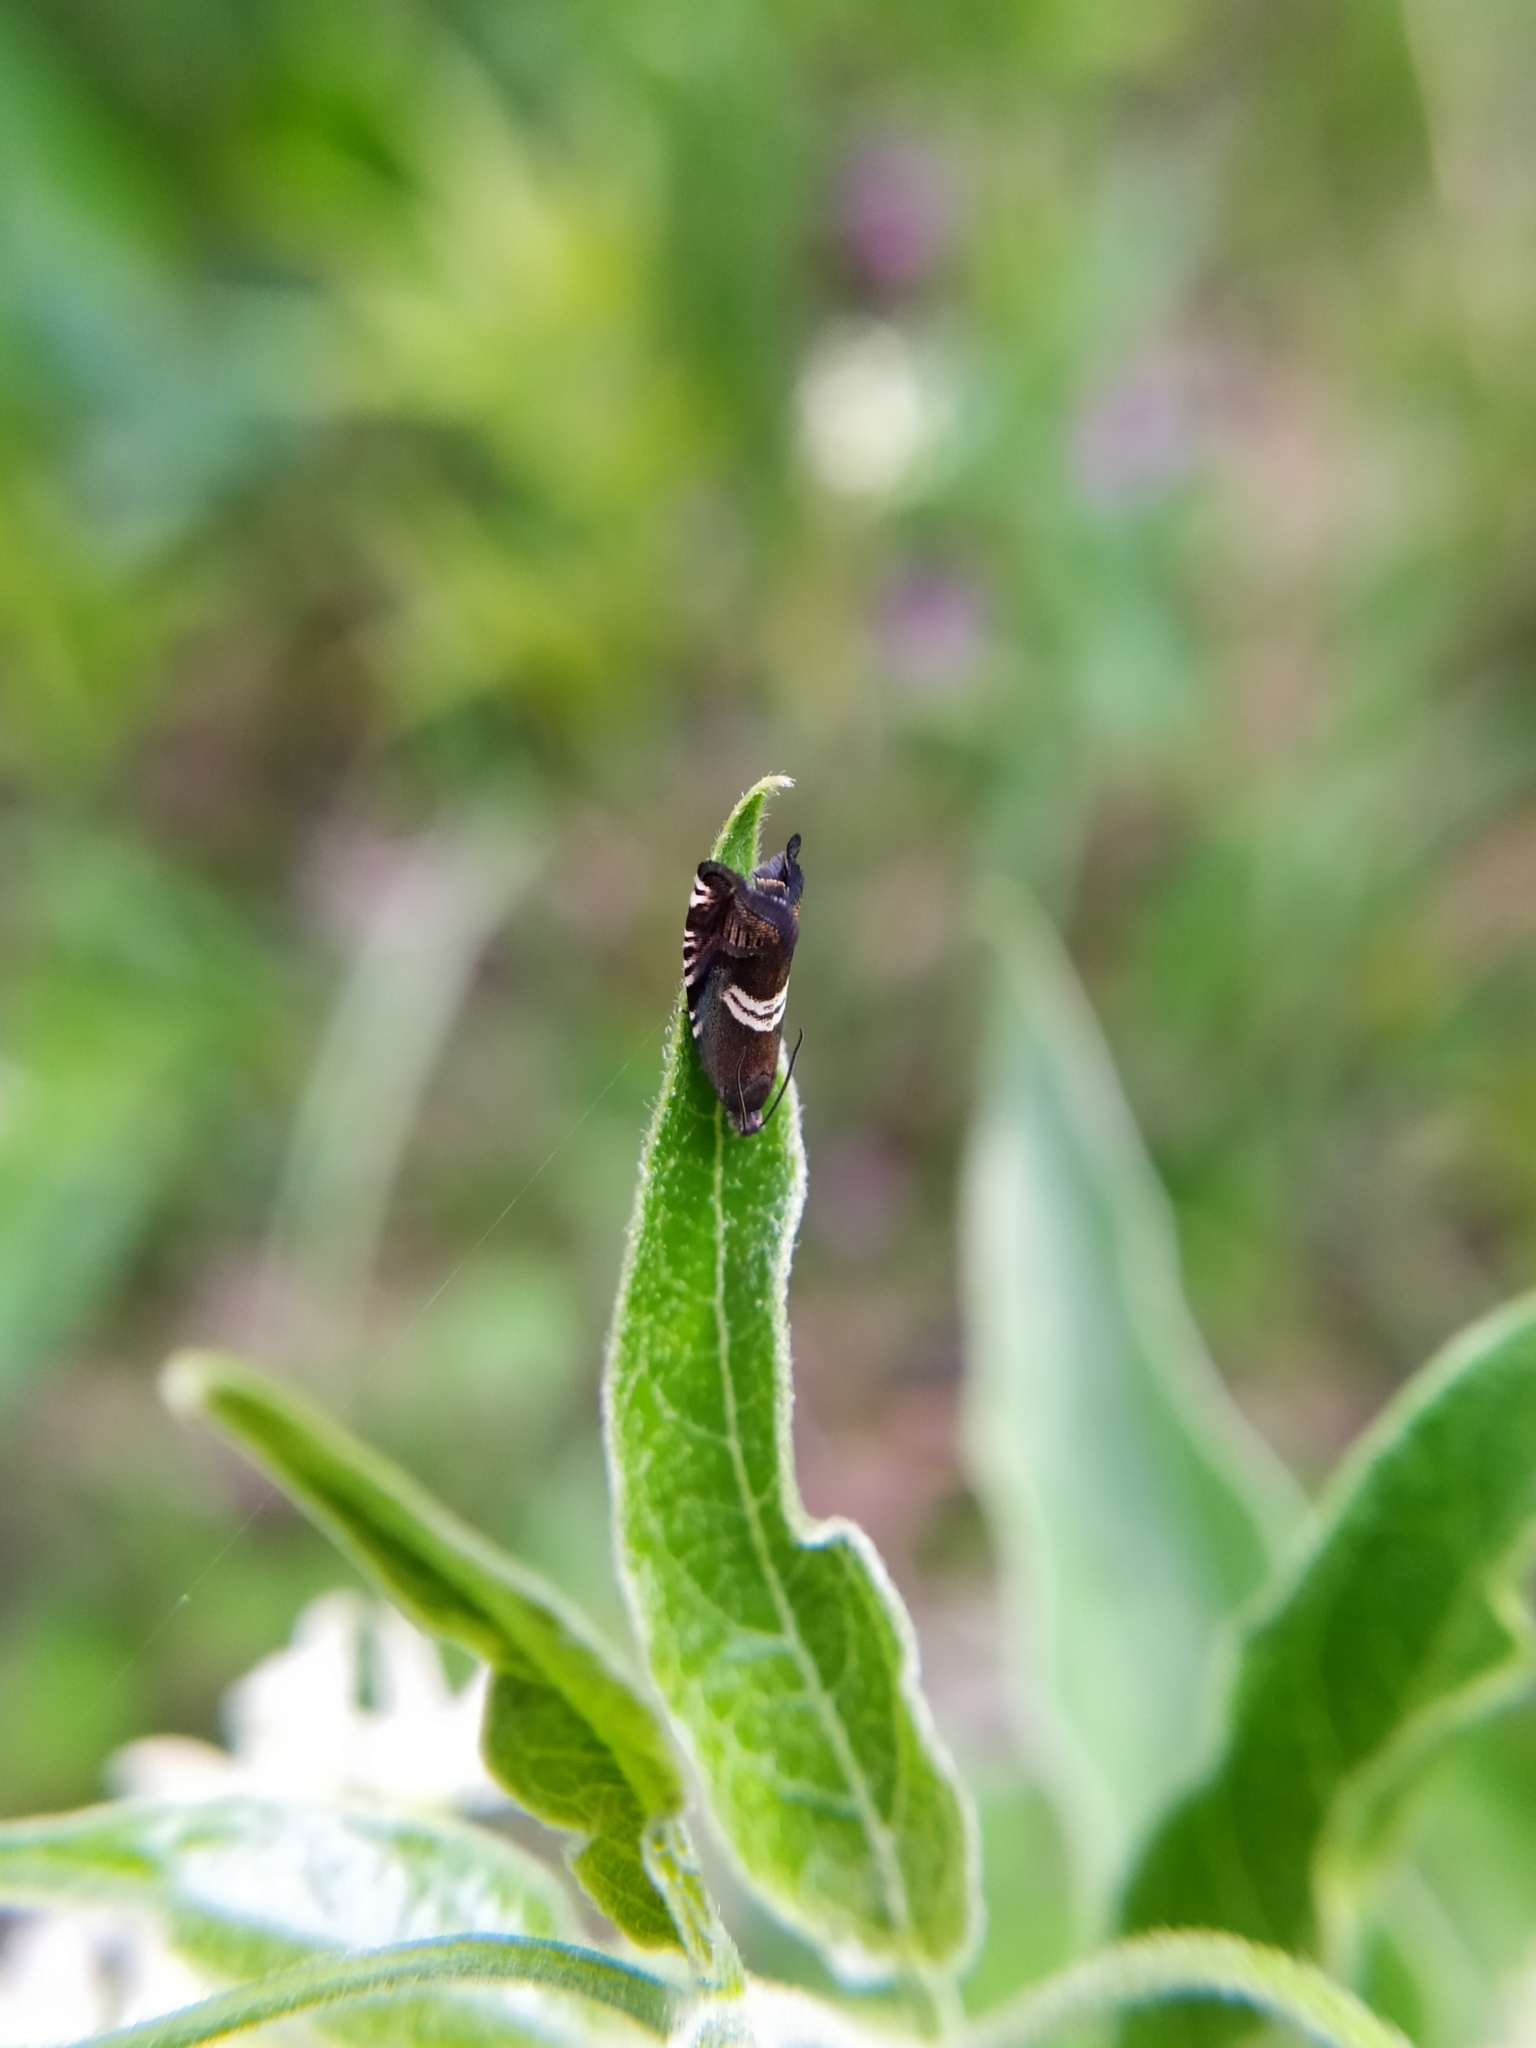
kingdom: Animalia
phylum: Arthropoda
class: Insecta
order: Lepidoptera
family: Tortricidae
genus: Grapholita
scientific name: Grapholita
